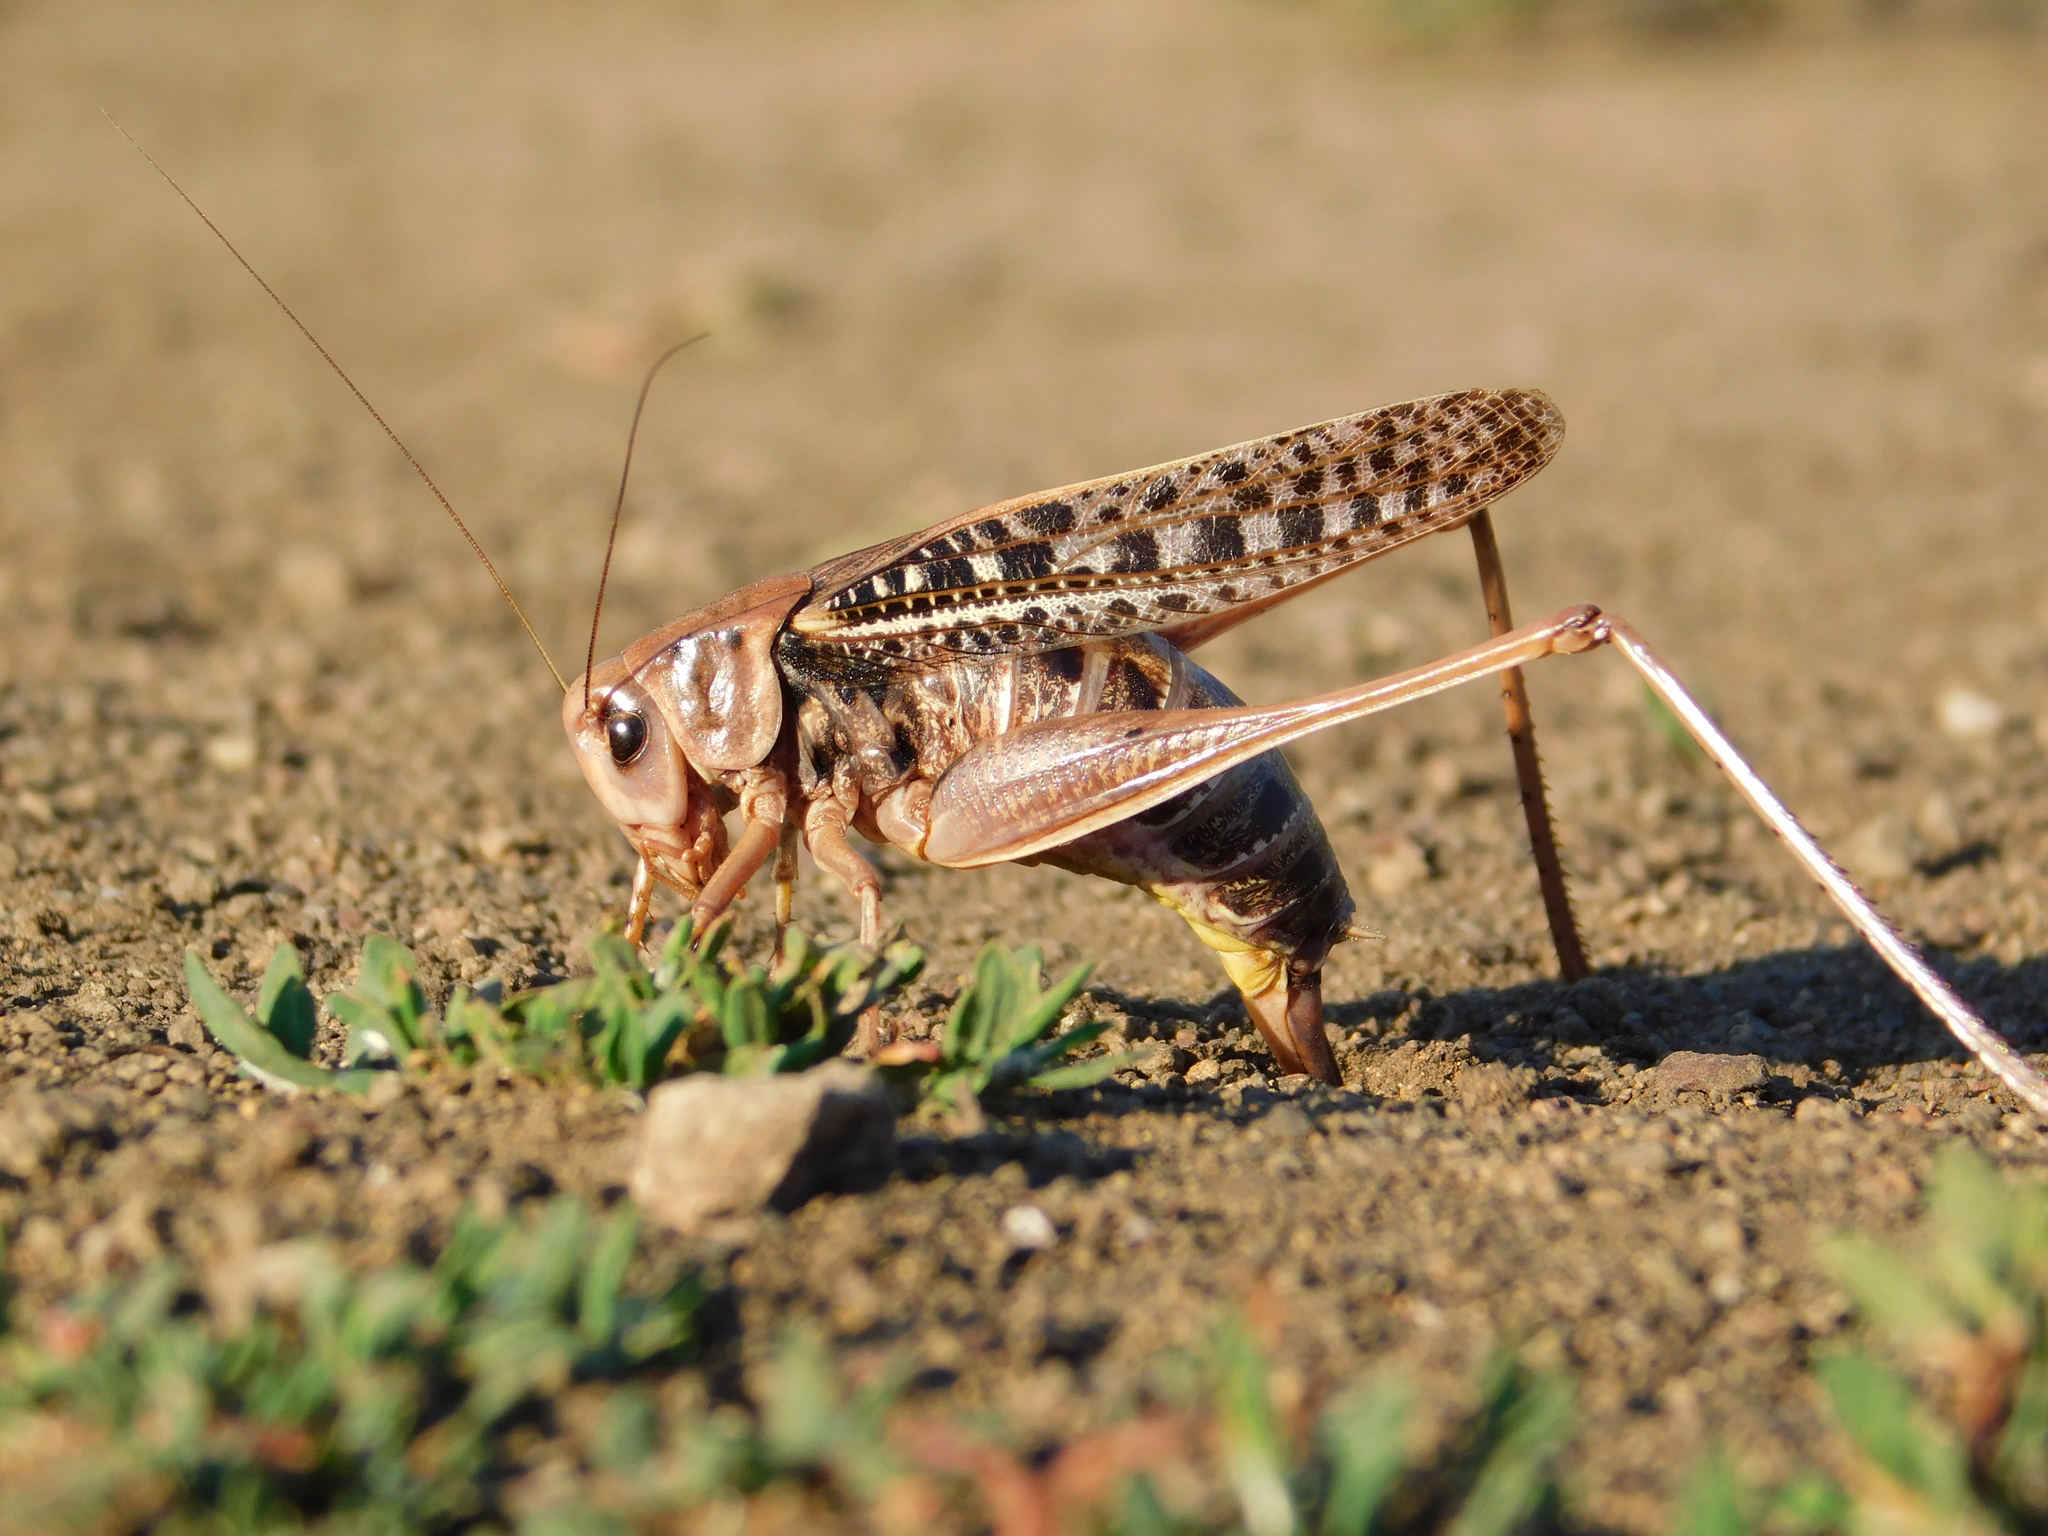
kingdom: Animalia
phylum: Arthropoda
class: Insecta
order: Orthoptera
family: Tettigoniidae
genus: Decticus
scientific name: Decticus verrucivorus
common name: Wart-biter
